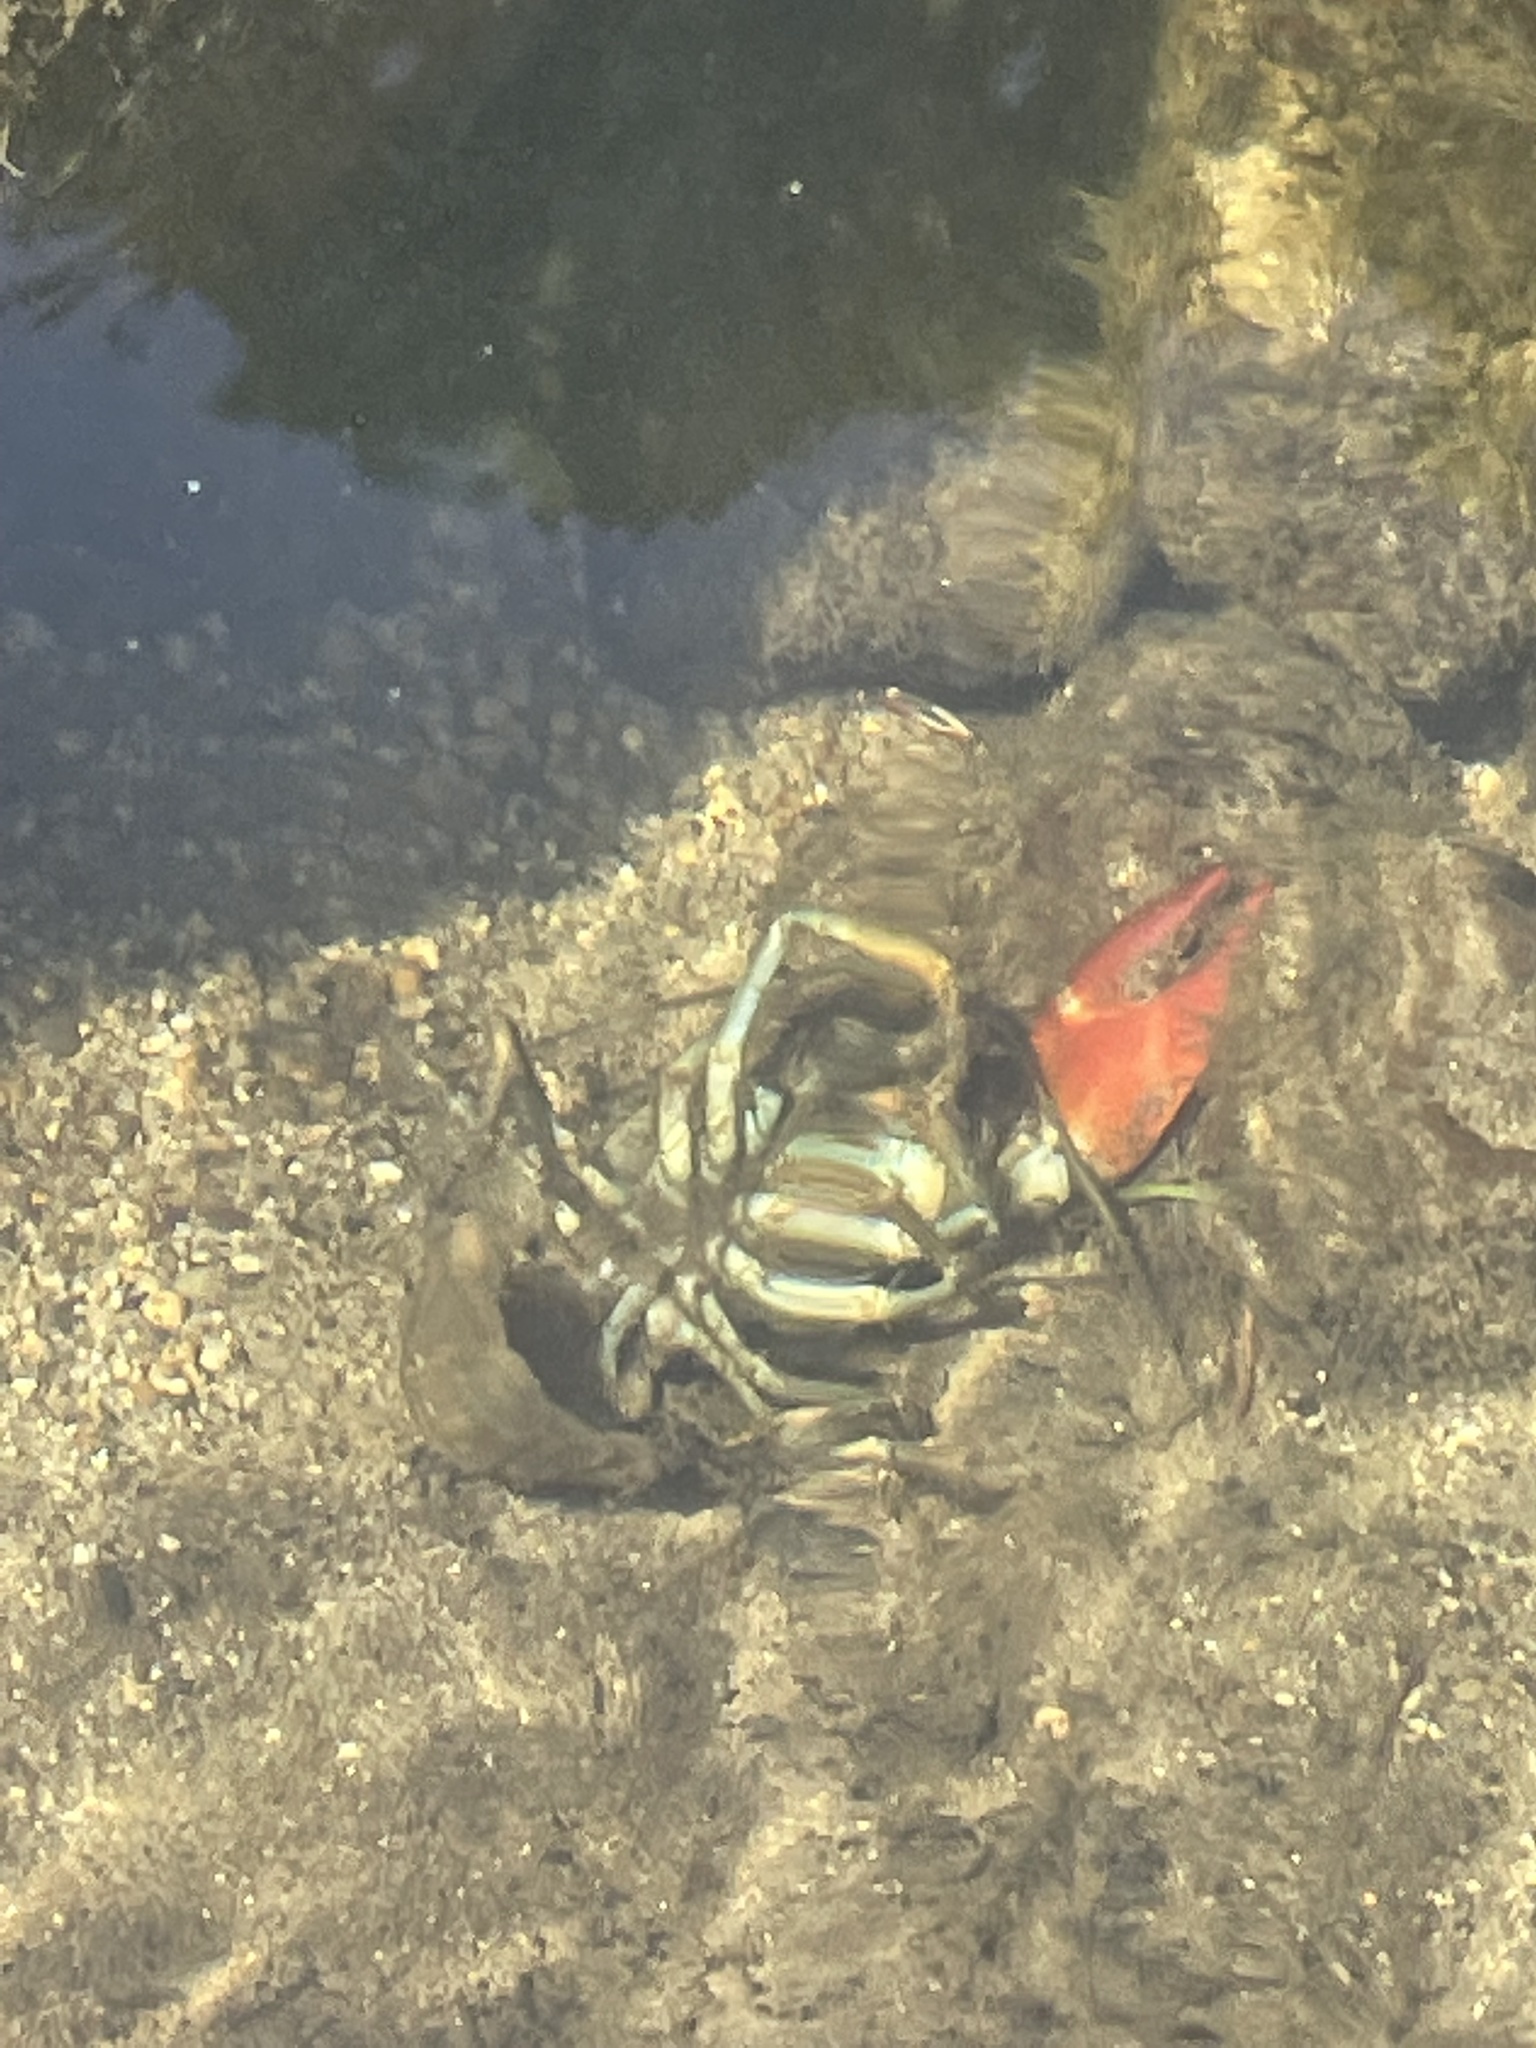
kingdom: Animalia
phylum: Arthropoda
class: Malacostraca
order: Decapoda
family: Astacidae
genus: Pacifastacus
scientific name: Pacifastacus leniusculus
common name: Signal crayfish
